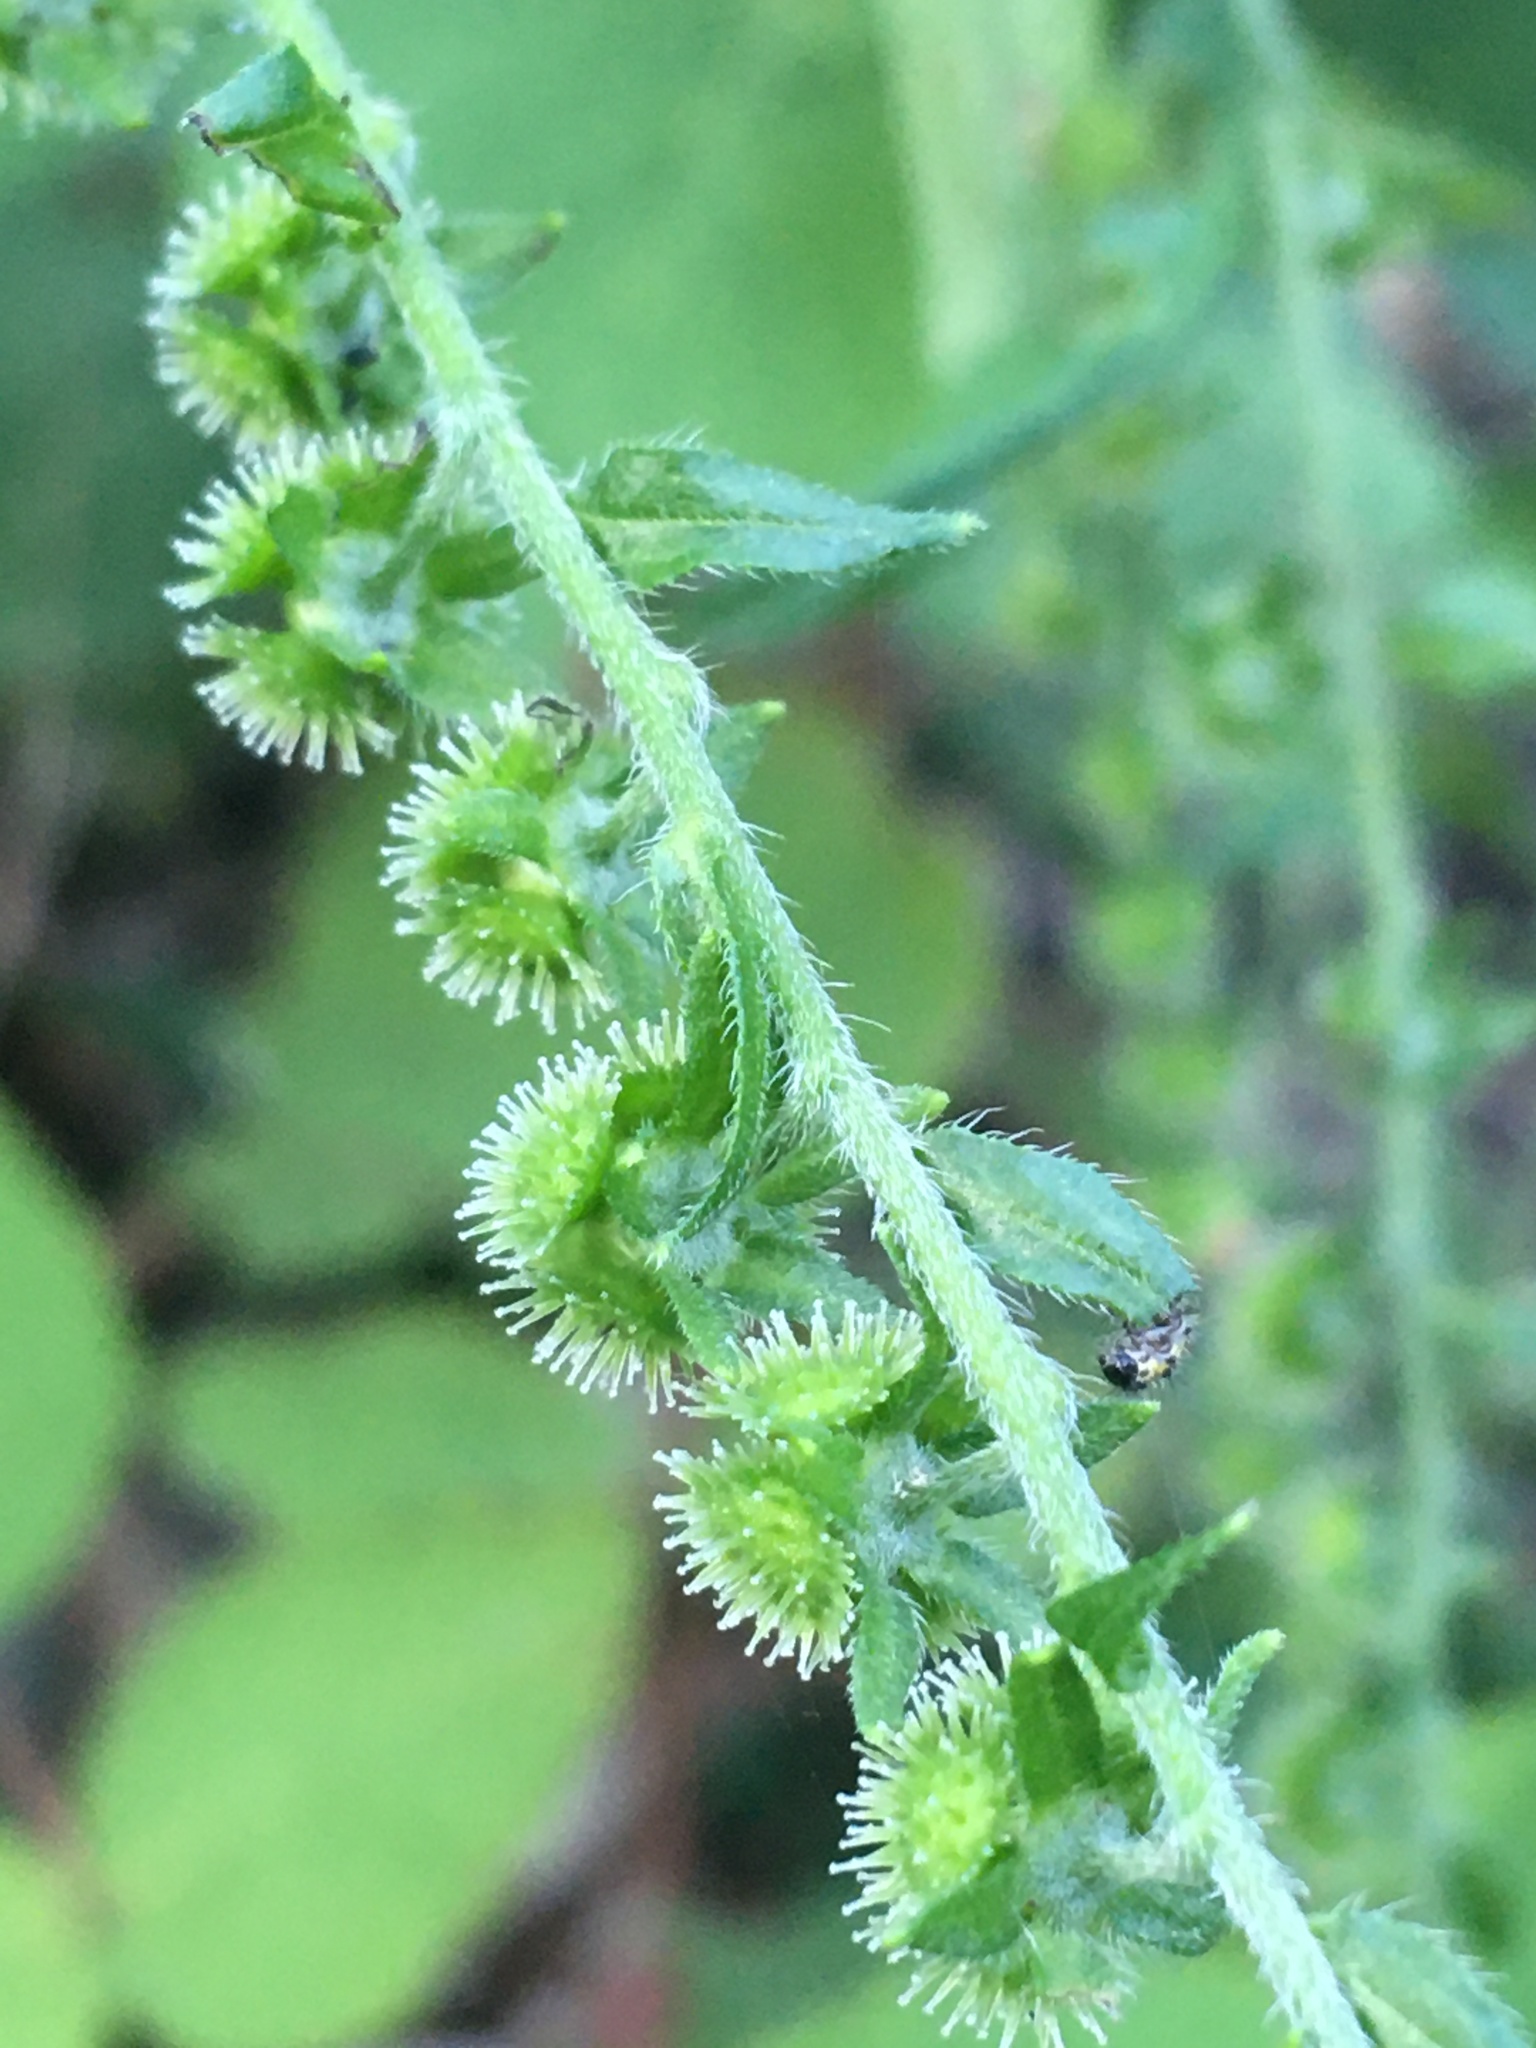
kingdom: Plantae
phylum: Tracheophyta
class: Magnoliopsida
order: Boraginales
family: Boraginaceae
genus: Hackelia
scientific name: Hackelia virginiana
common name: Beggar's-lice
